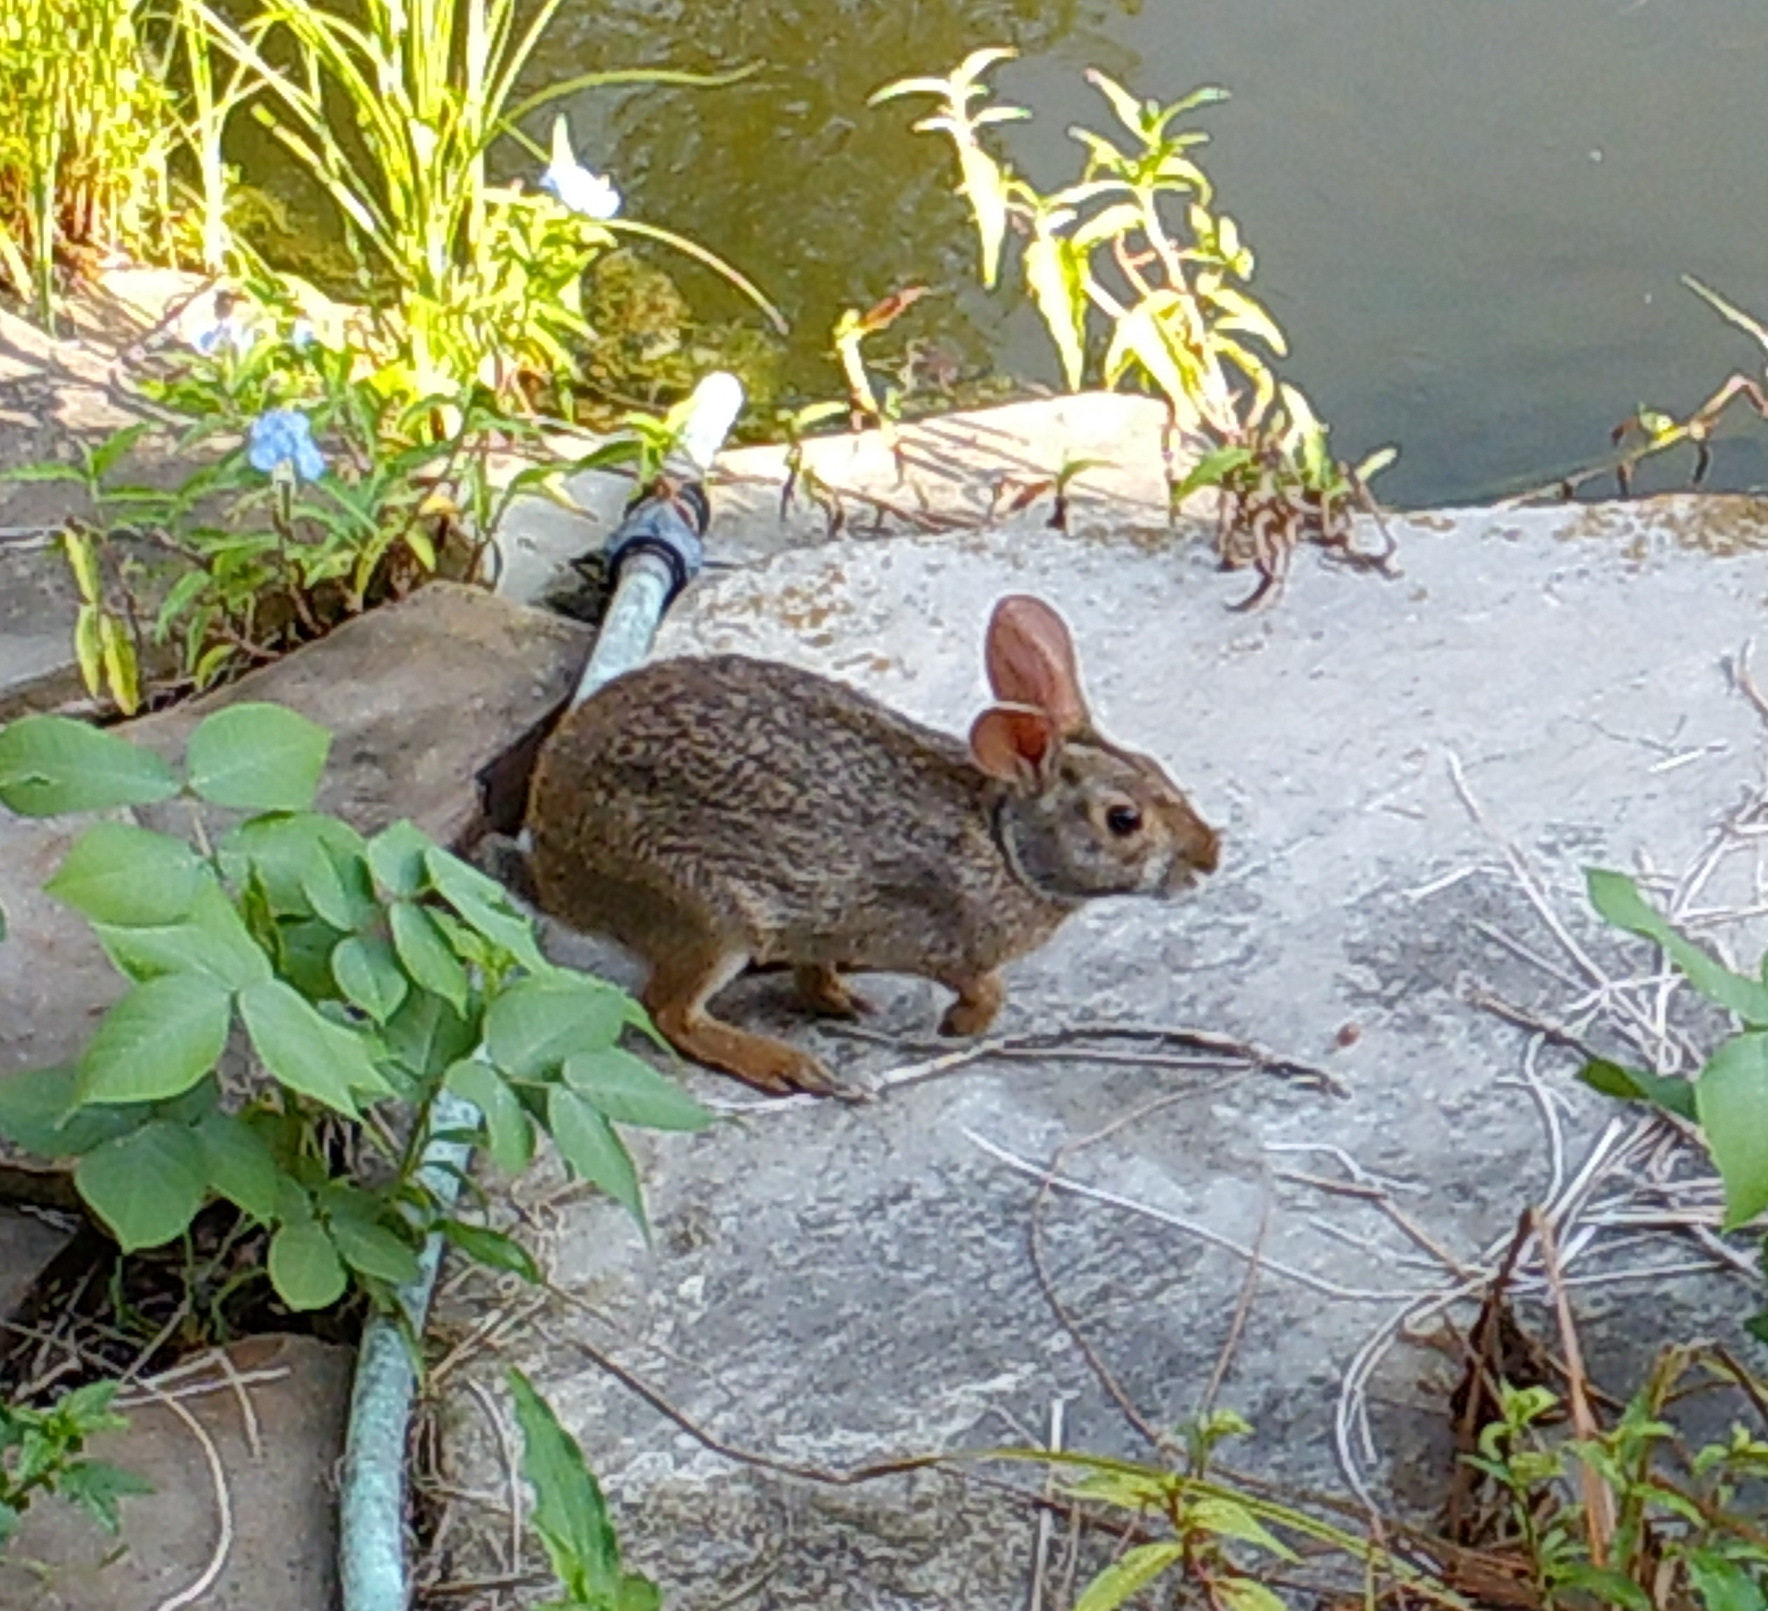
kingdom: Animalia
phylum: Chordata
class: Mammalia
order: Lagomorpha
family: Leporidae
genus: Sylvilagus
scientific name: Sylvilagus aquaticus
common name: Swamp rabbit
